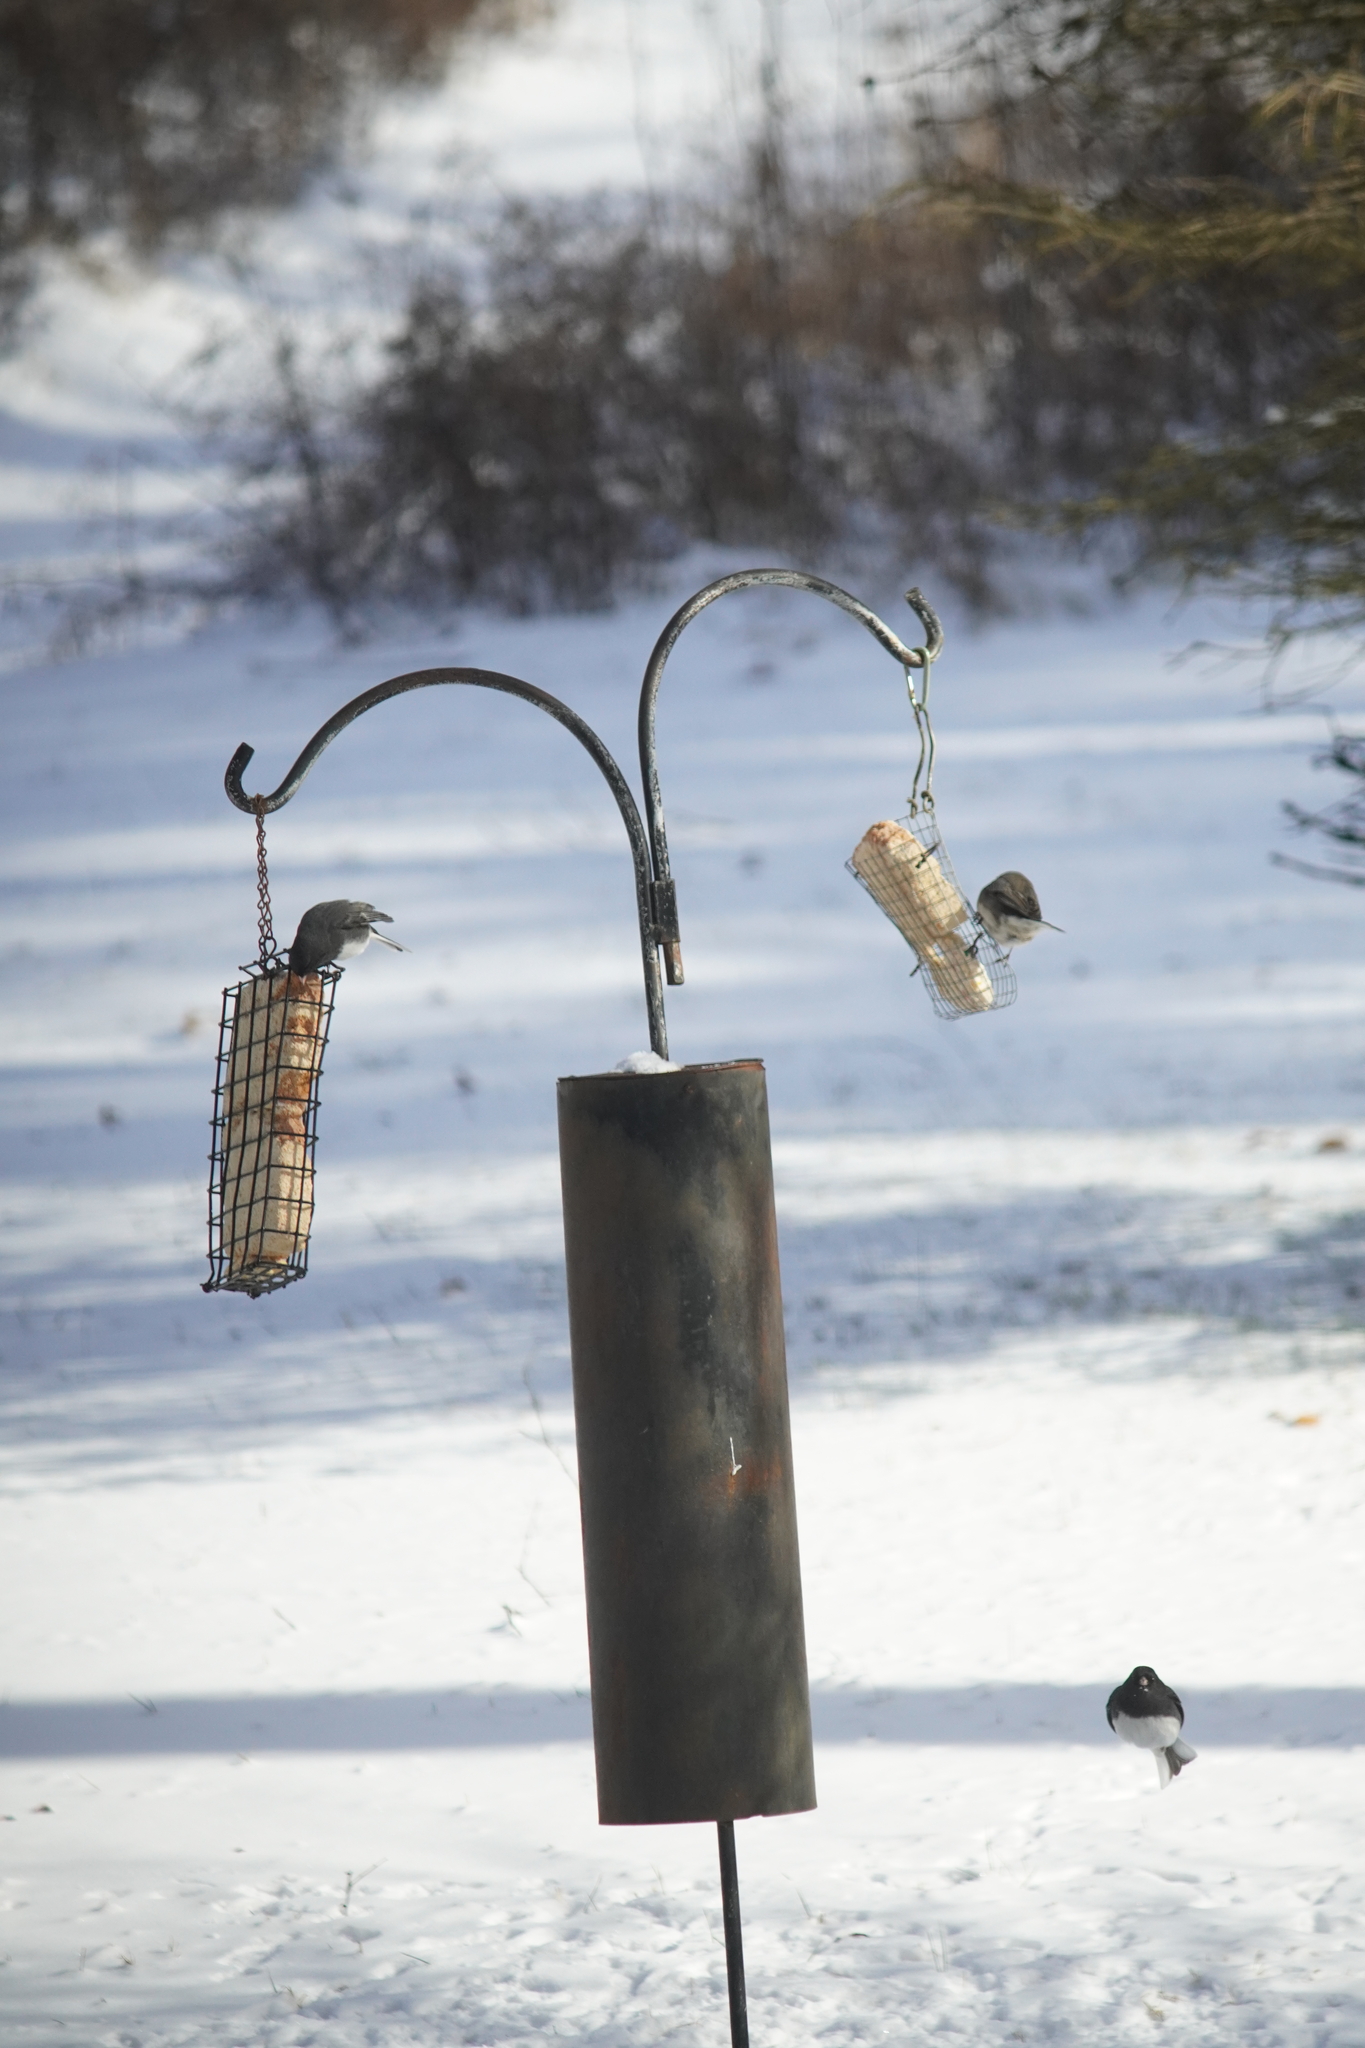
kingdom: Animalia
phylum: Chordata
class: Aves
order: Passeriformes
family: Passerellidae
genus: Junco
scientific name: Junco hyemalis
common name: Dark-eyed junco
